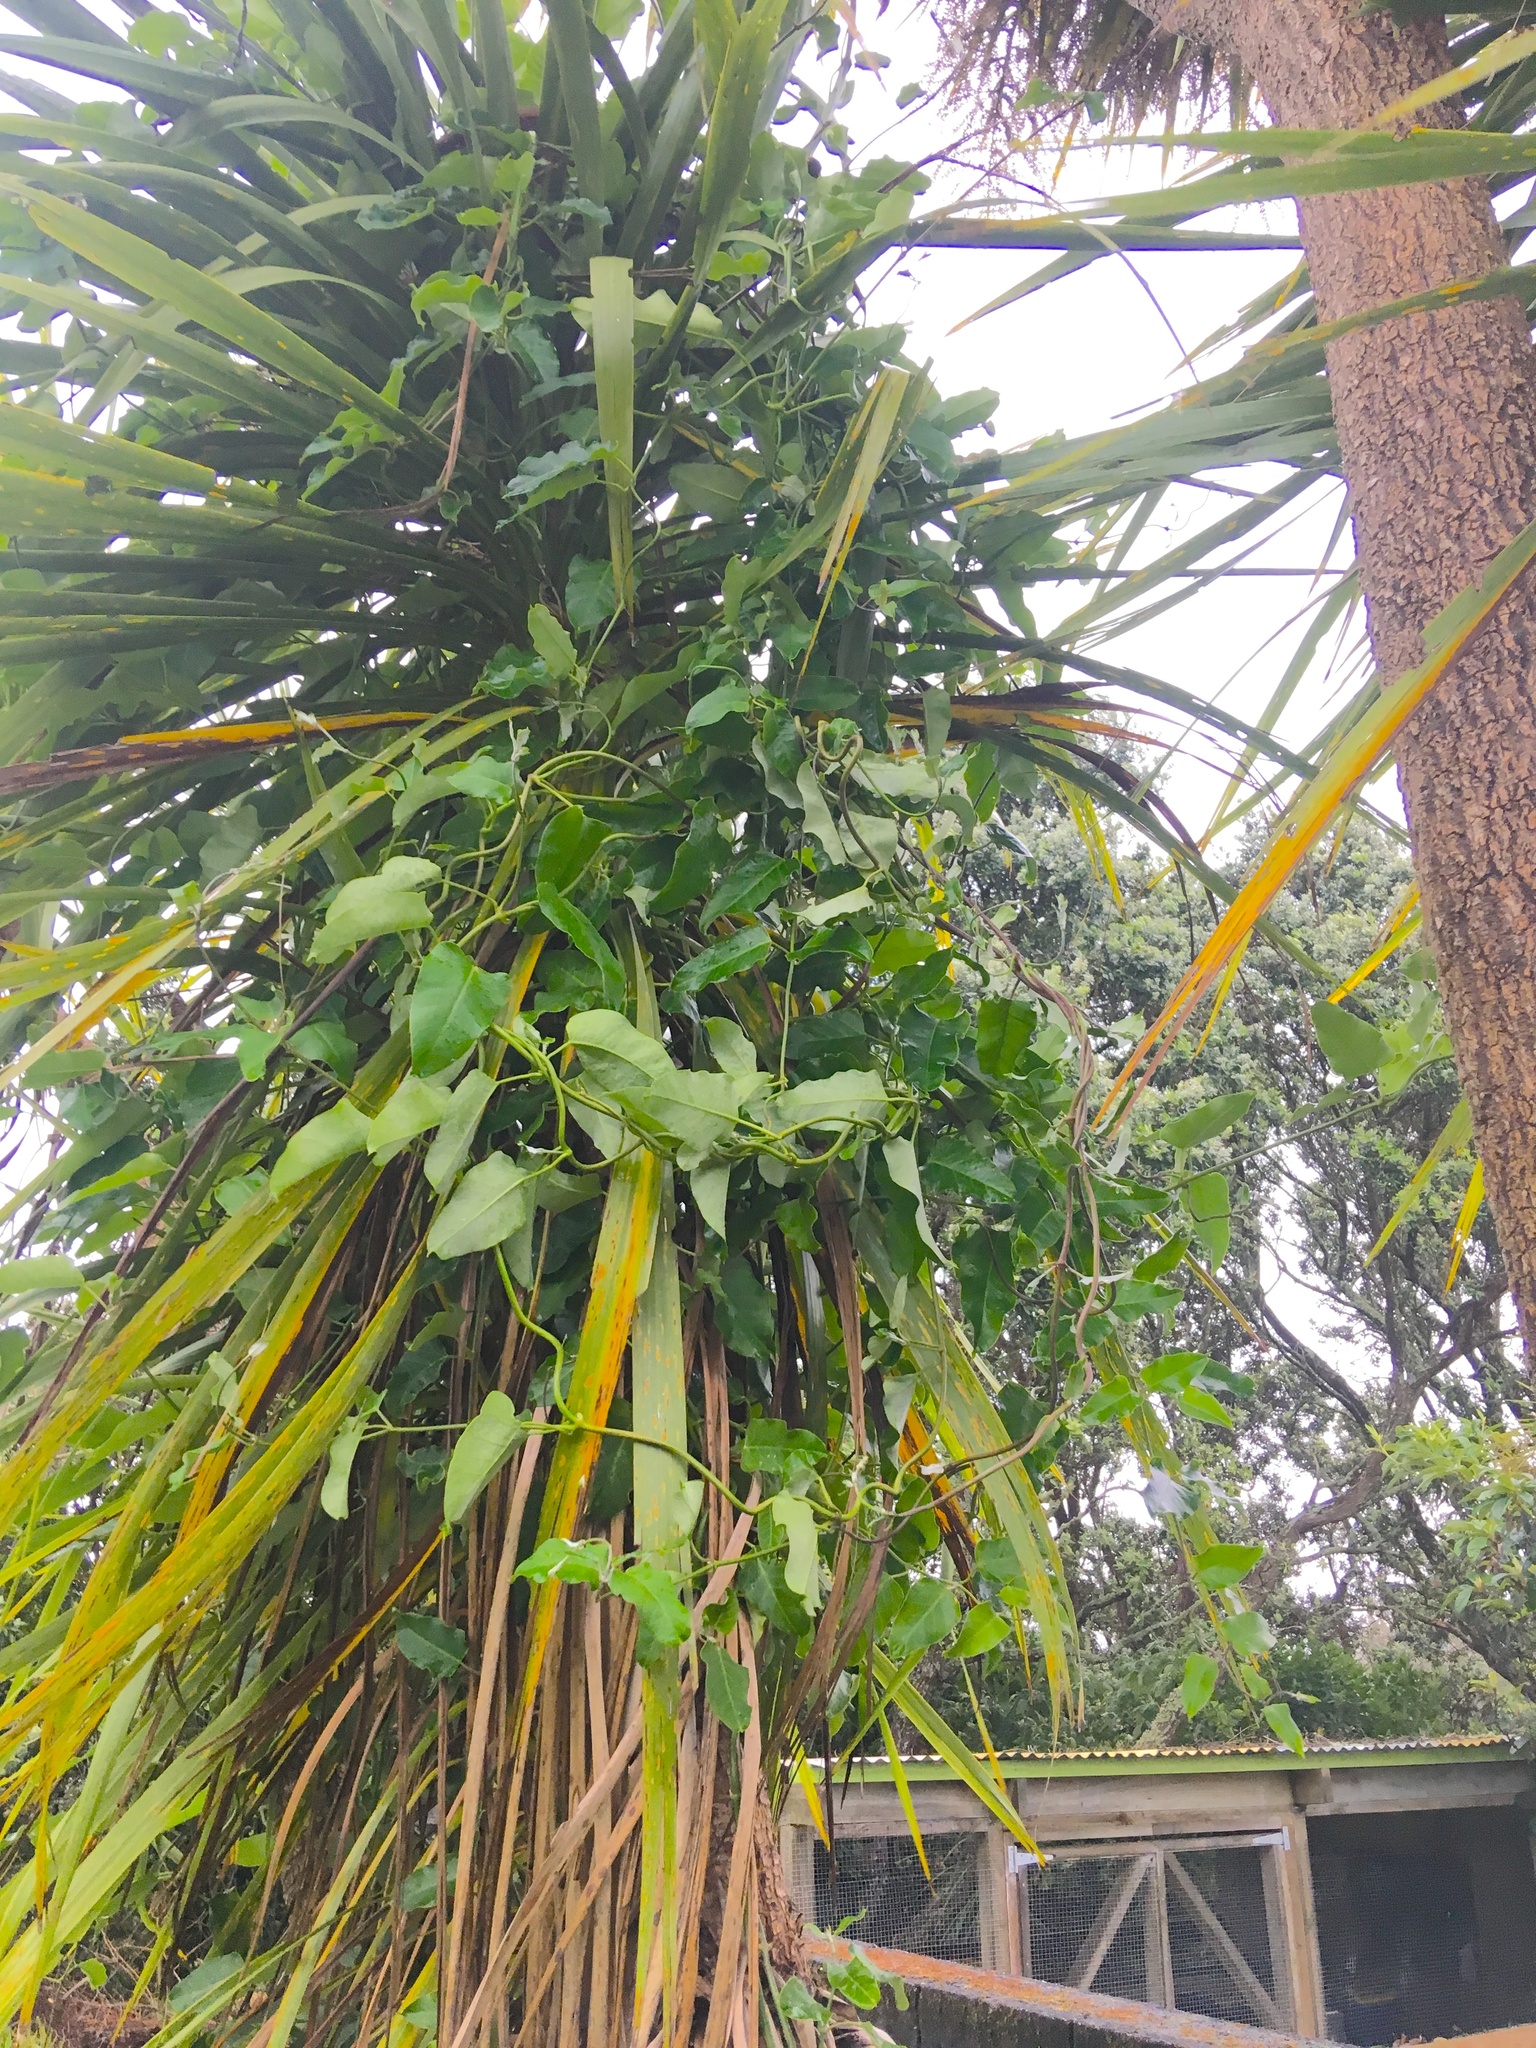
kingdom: Plantae
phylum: Tracheophyta
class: Magnoliopsida
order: Gentianales
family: Apocynaceae
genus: Araujia
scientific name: Araujia sericifera
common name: White bladderflower
